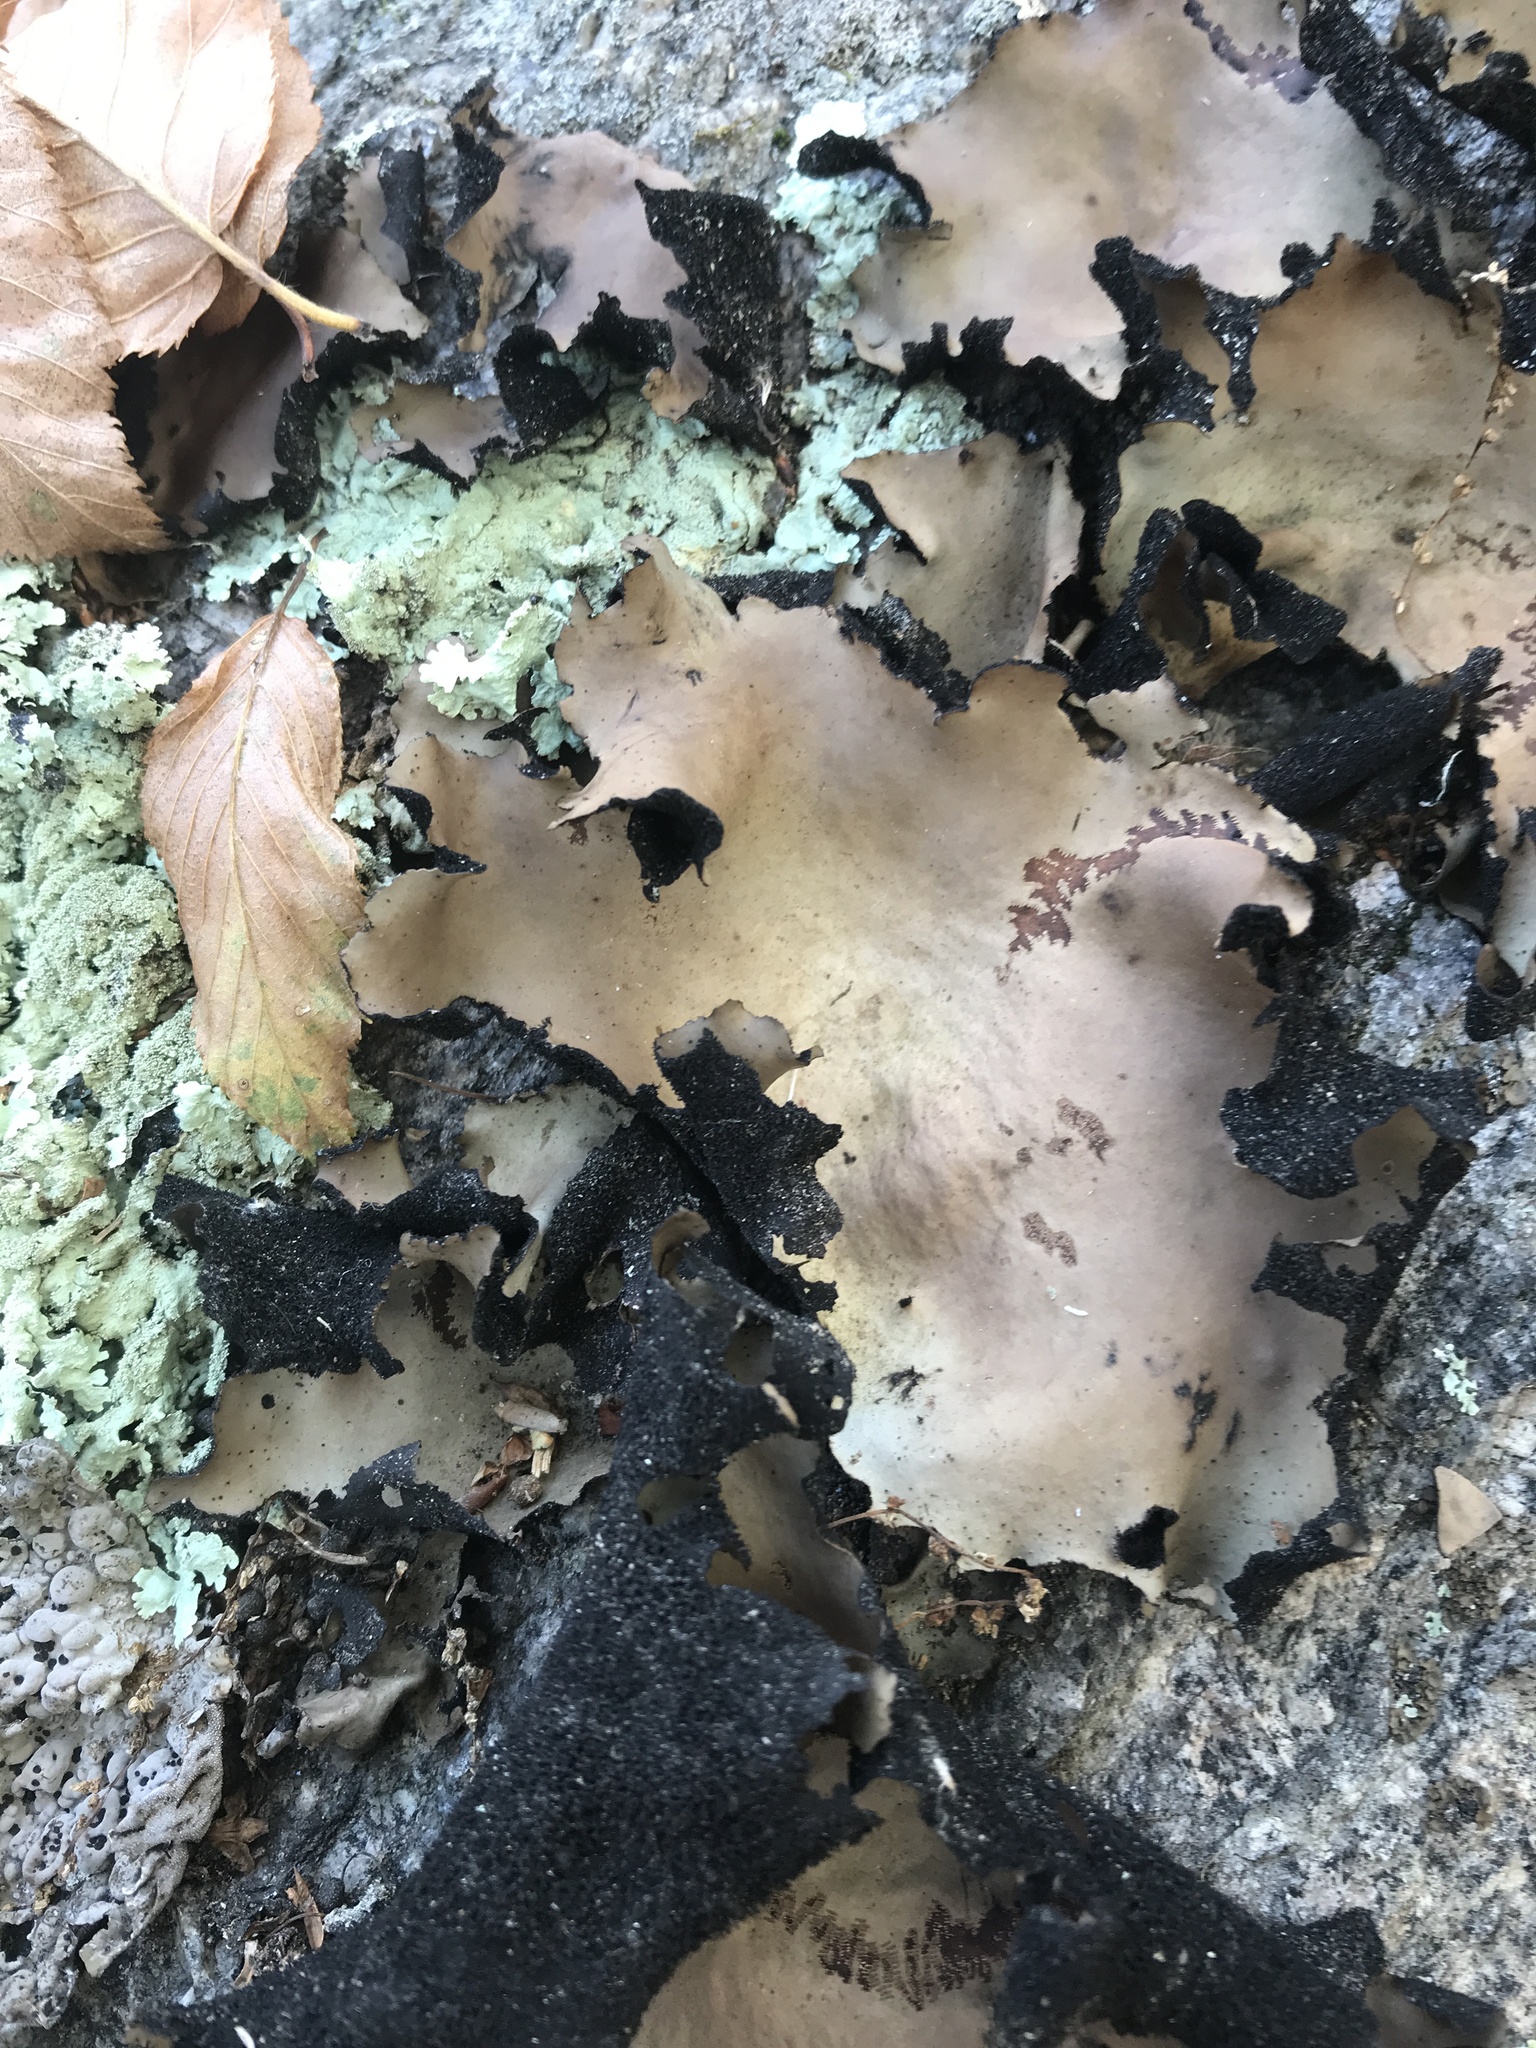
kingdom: Fungi
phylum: Ascomycota
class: Lecanoromycetes
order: Umbilicariales
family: Umbilicariaceae
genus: Umbilicaria
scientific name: Umbilicaria mammulata
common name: Smooth rock tripe
